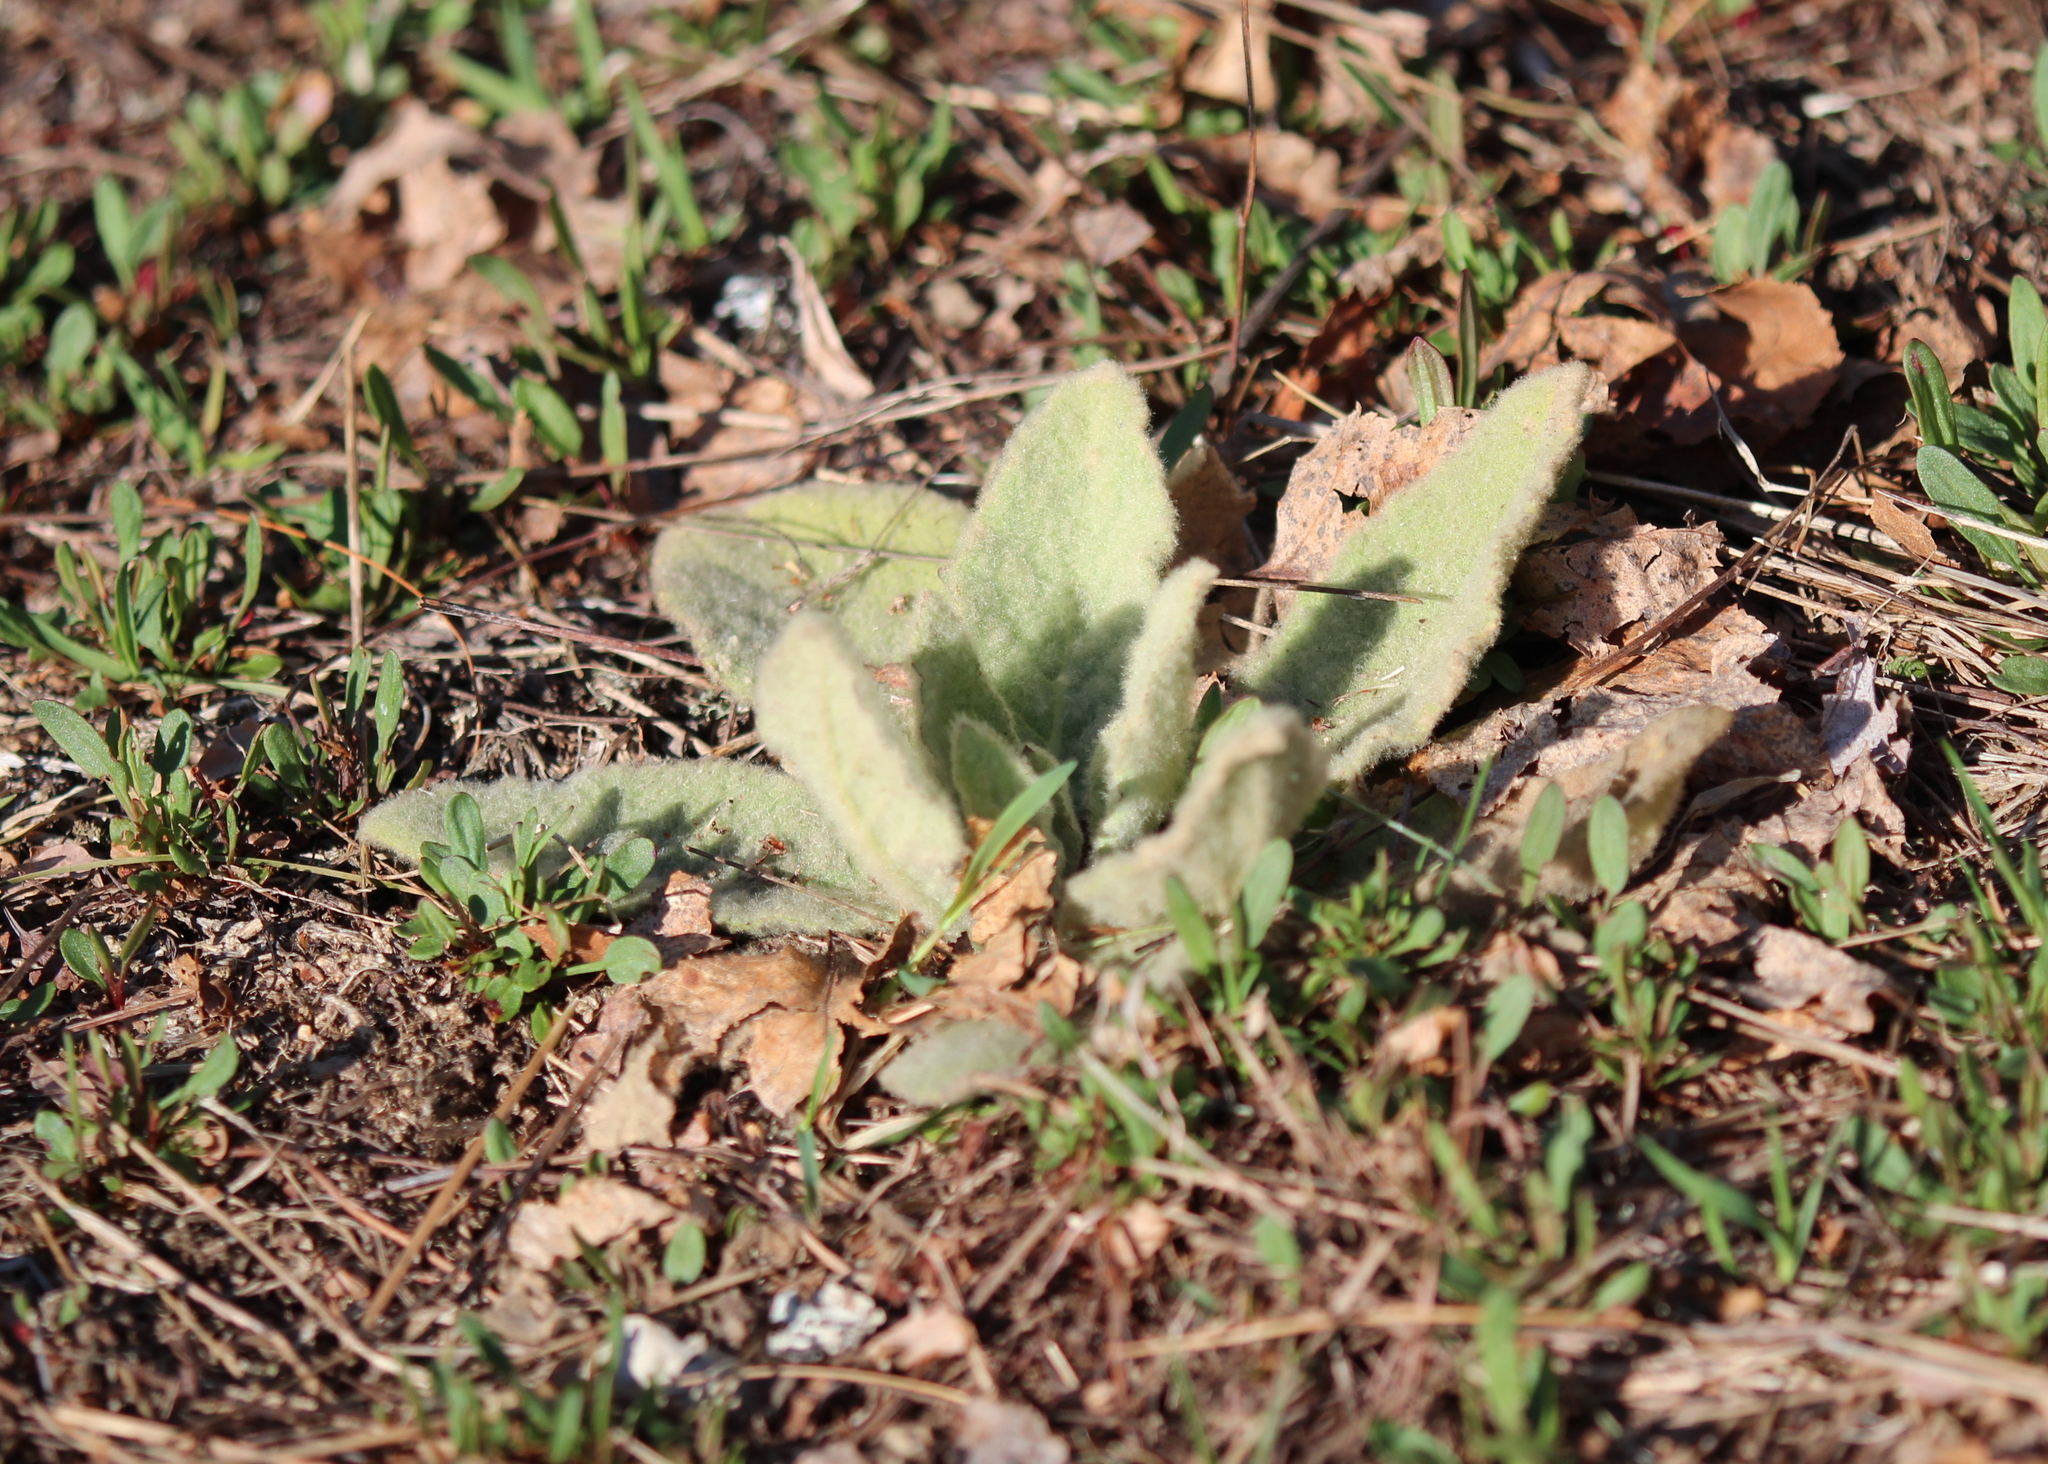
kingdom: Plantae
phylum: Tracheophyta
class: Magnoliopsida
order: Lamiales
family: Scrophulariaceae
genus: Verbascum
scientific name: Verbascum thapsus
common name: Common mullein
